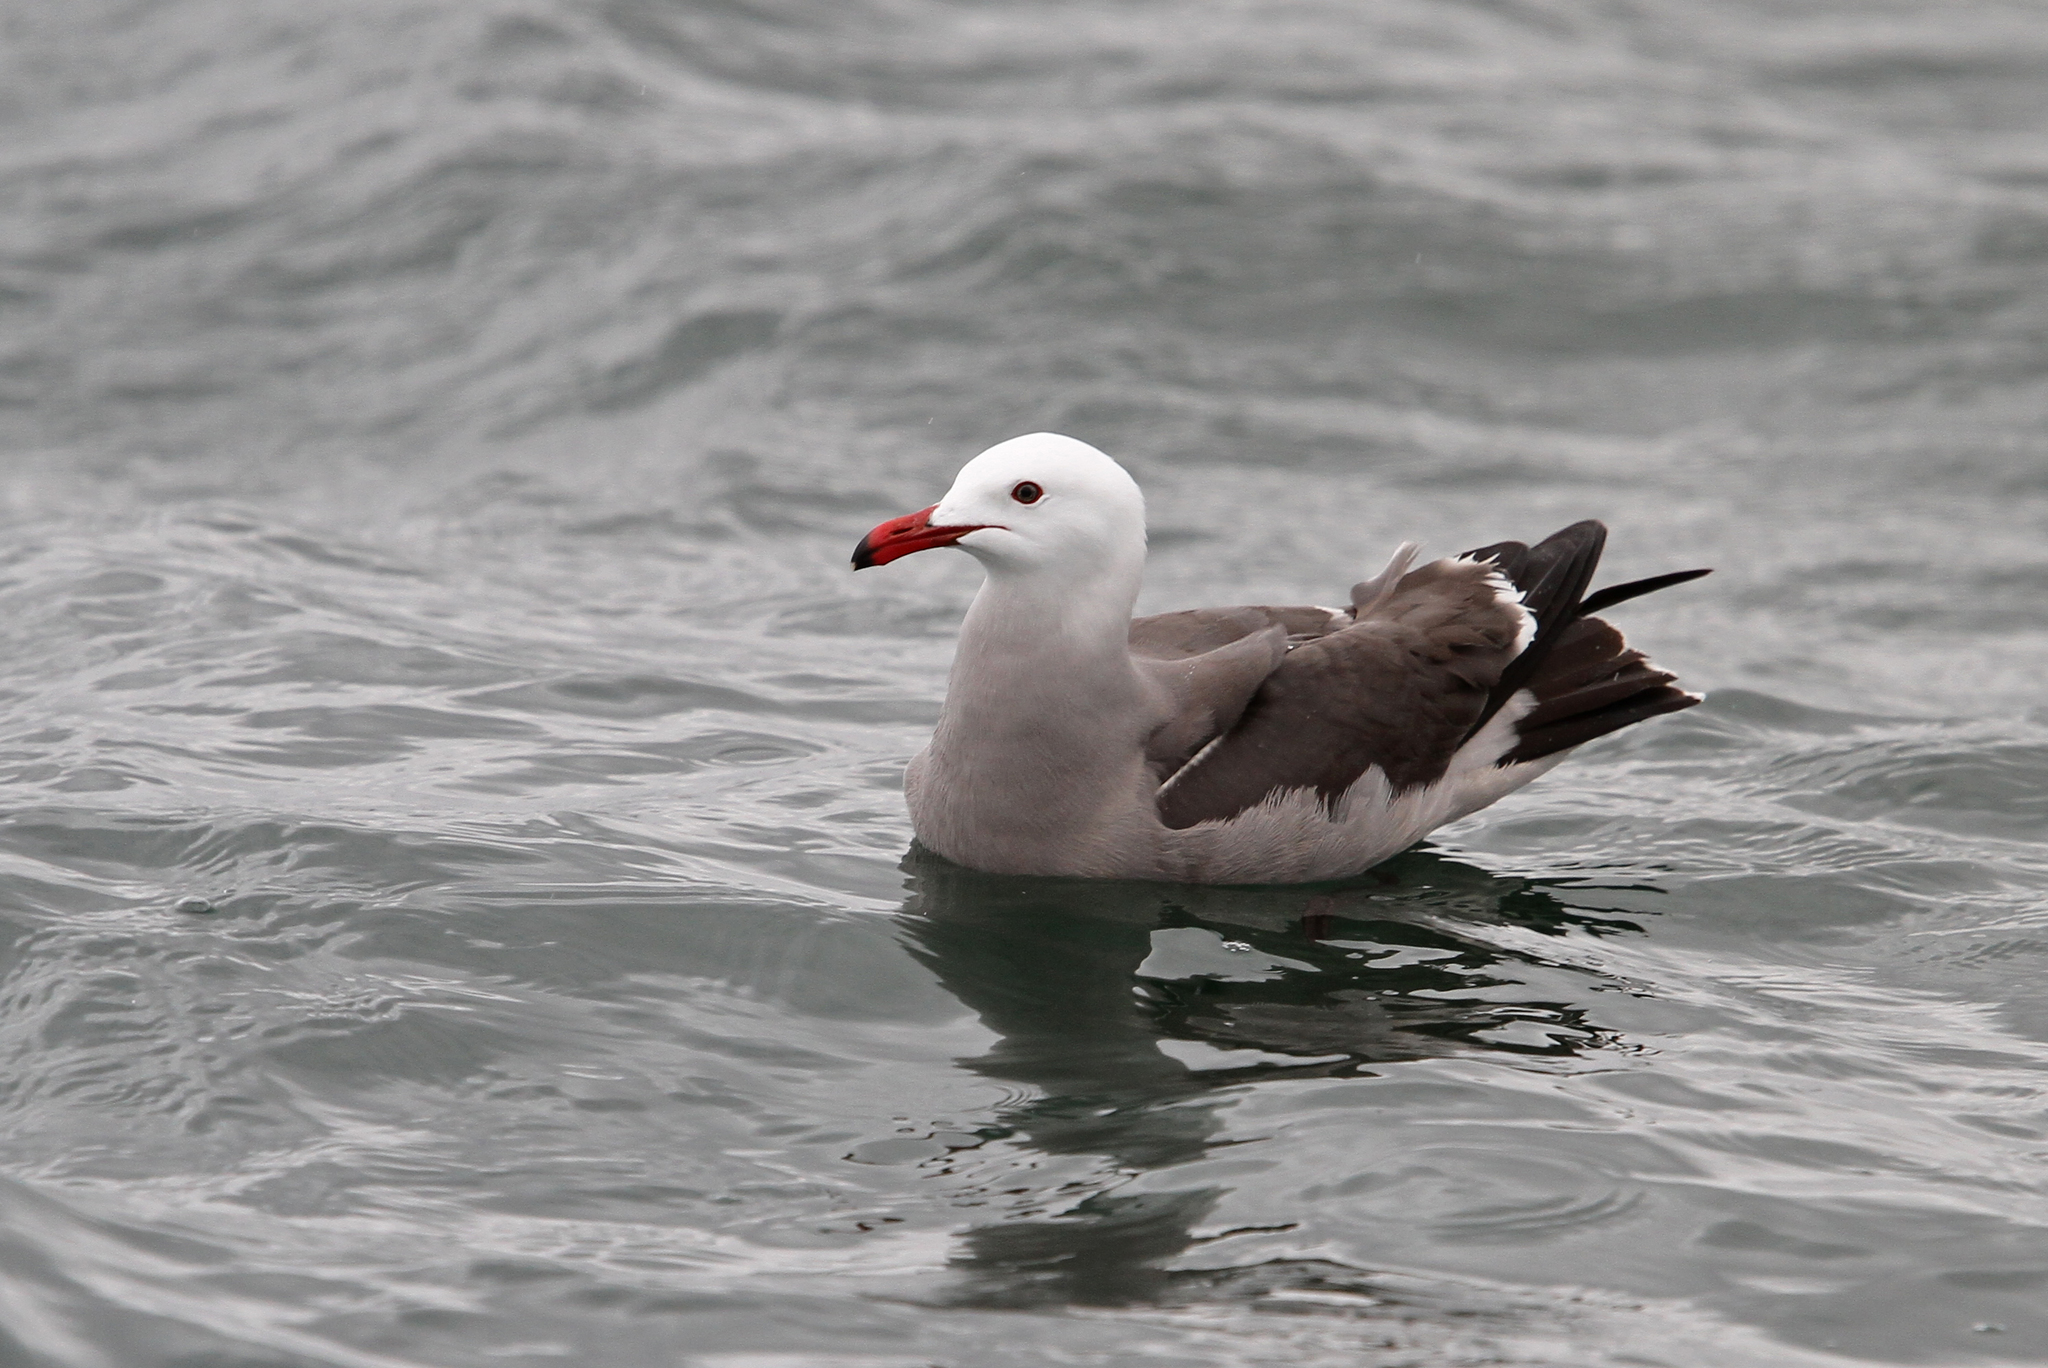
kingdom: Animalia
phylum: Chordata
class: Aves
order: Charadriiformes
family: Laridae
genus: Larus
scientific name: Larus heermanni
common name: Heermann's gull
